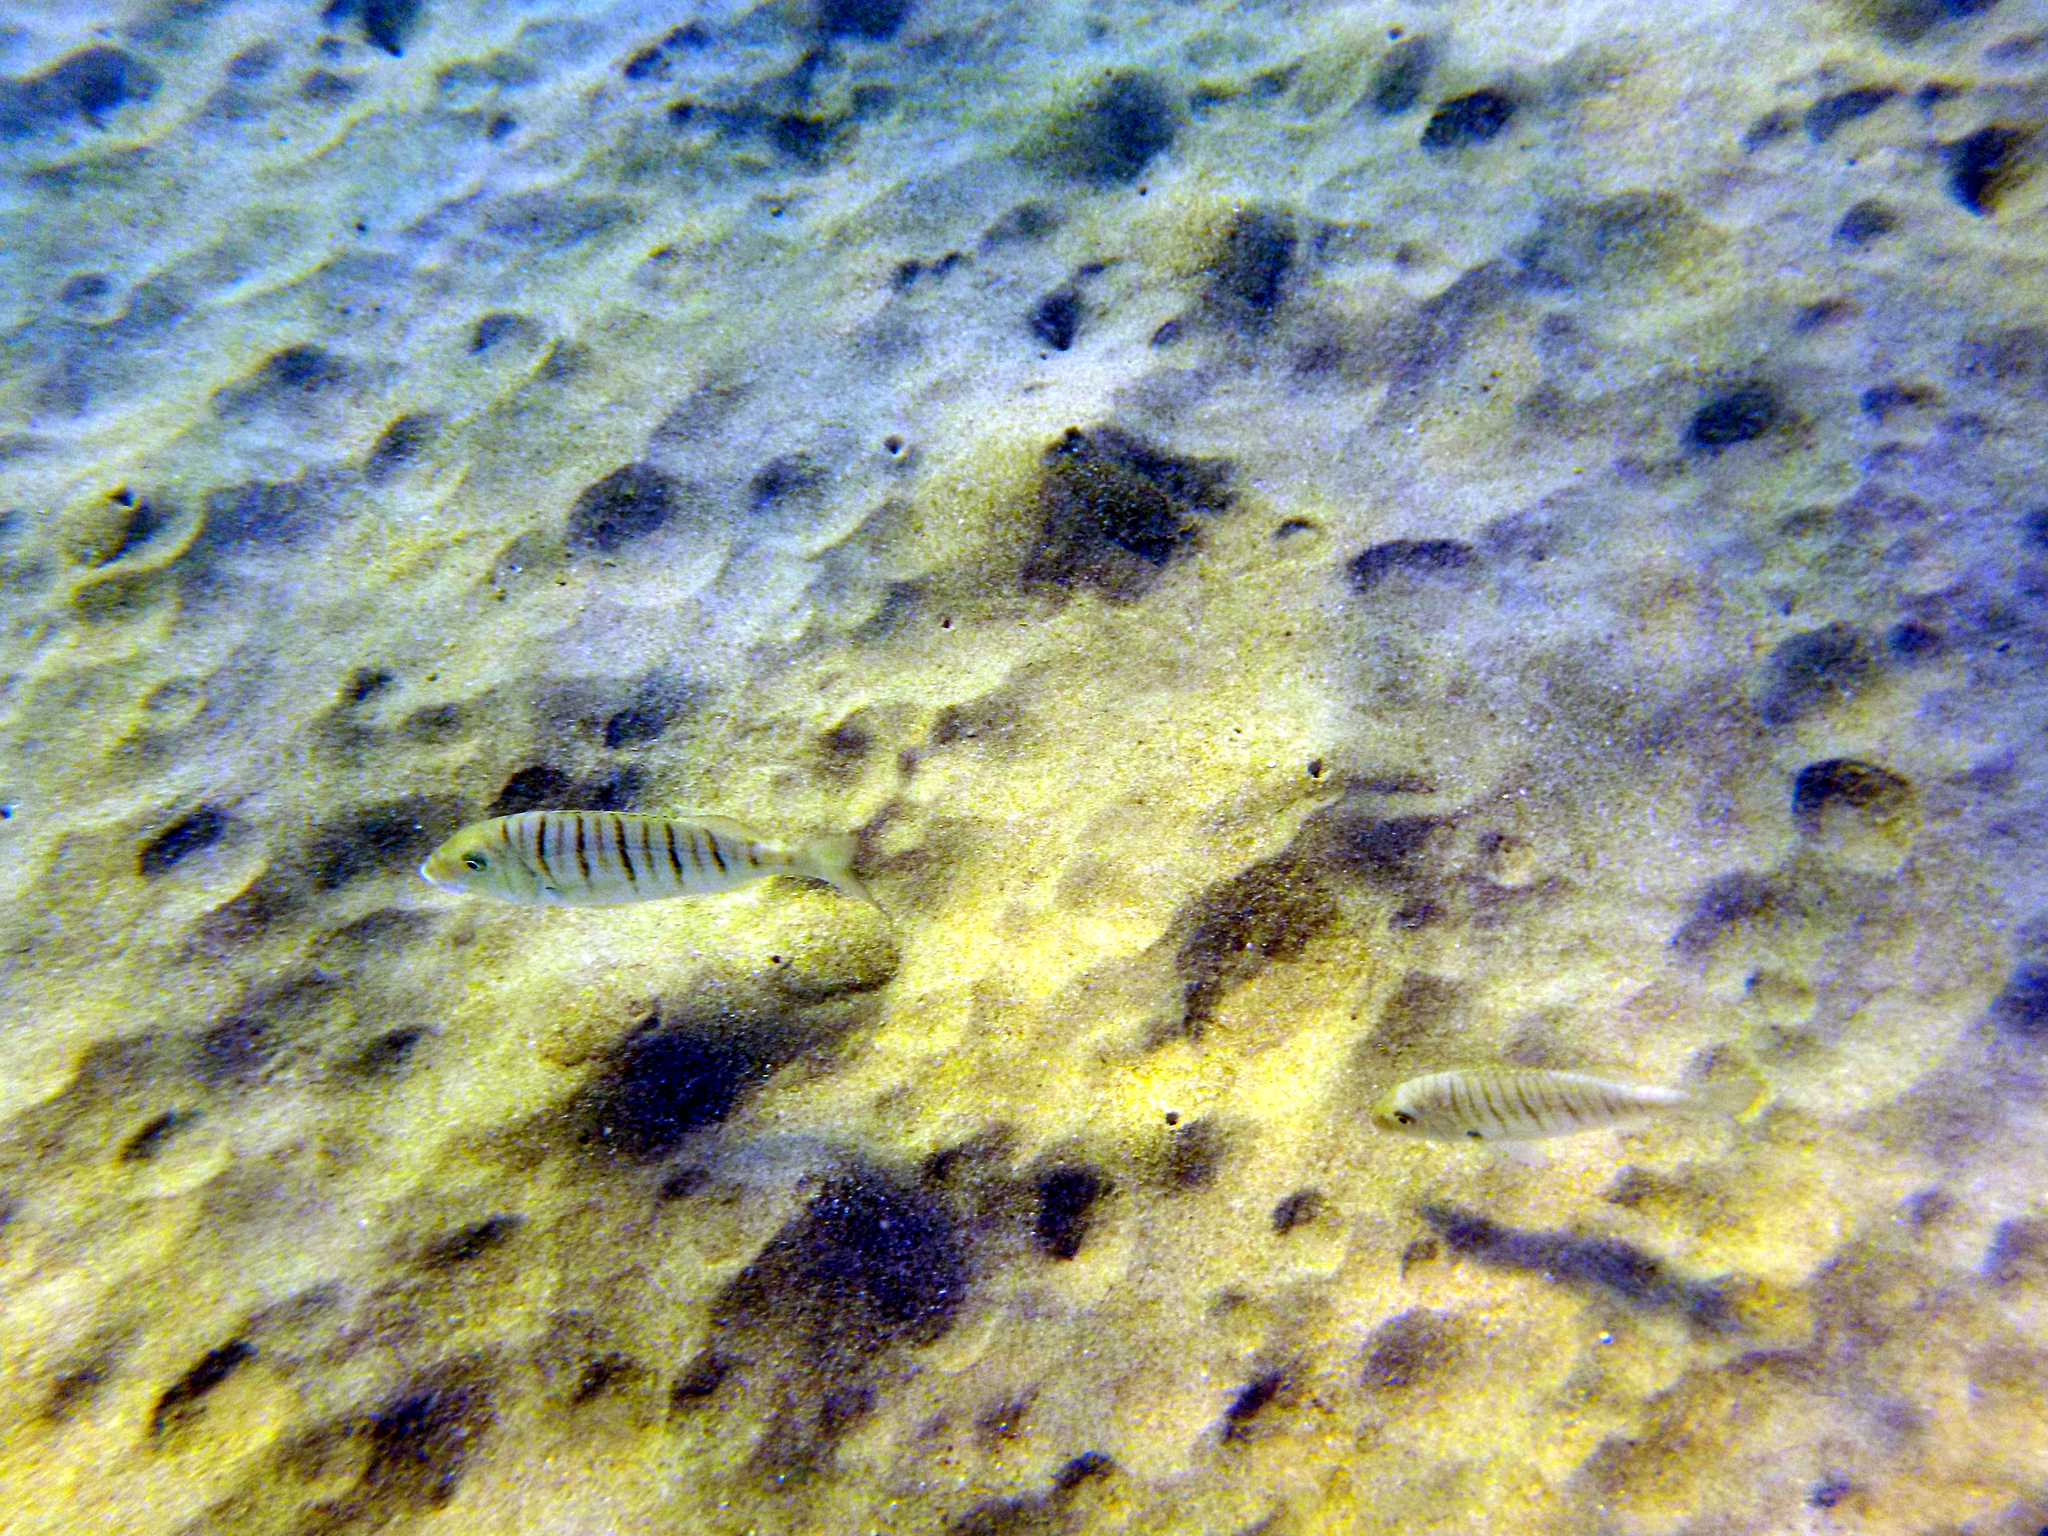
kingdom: Animalia
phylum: Chordata
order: Perciformes
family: Sparidae
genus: Lithognathus
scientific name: Lithognathus mormyrus
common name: Sand steenbras
